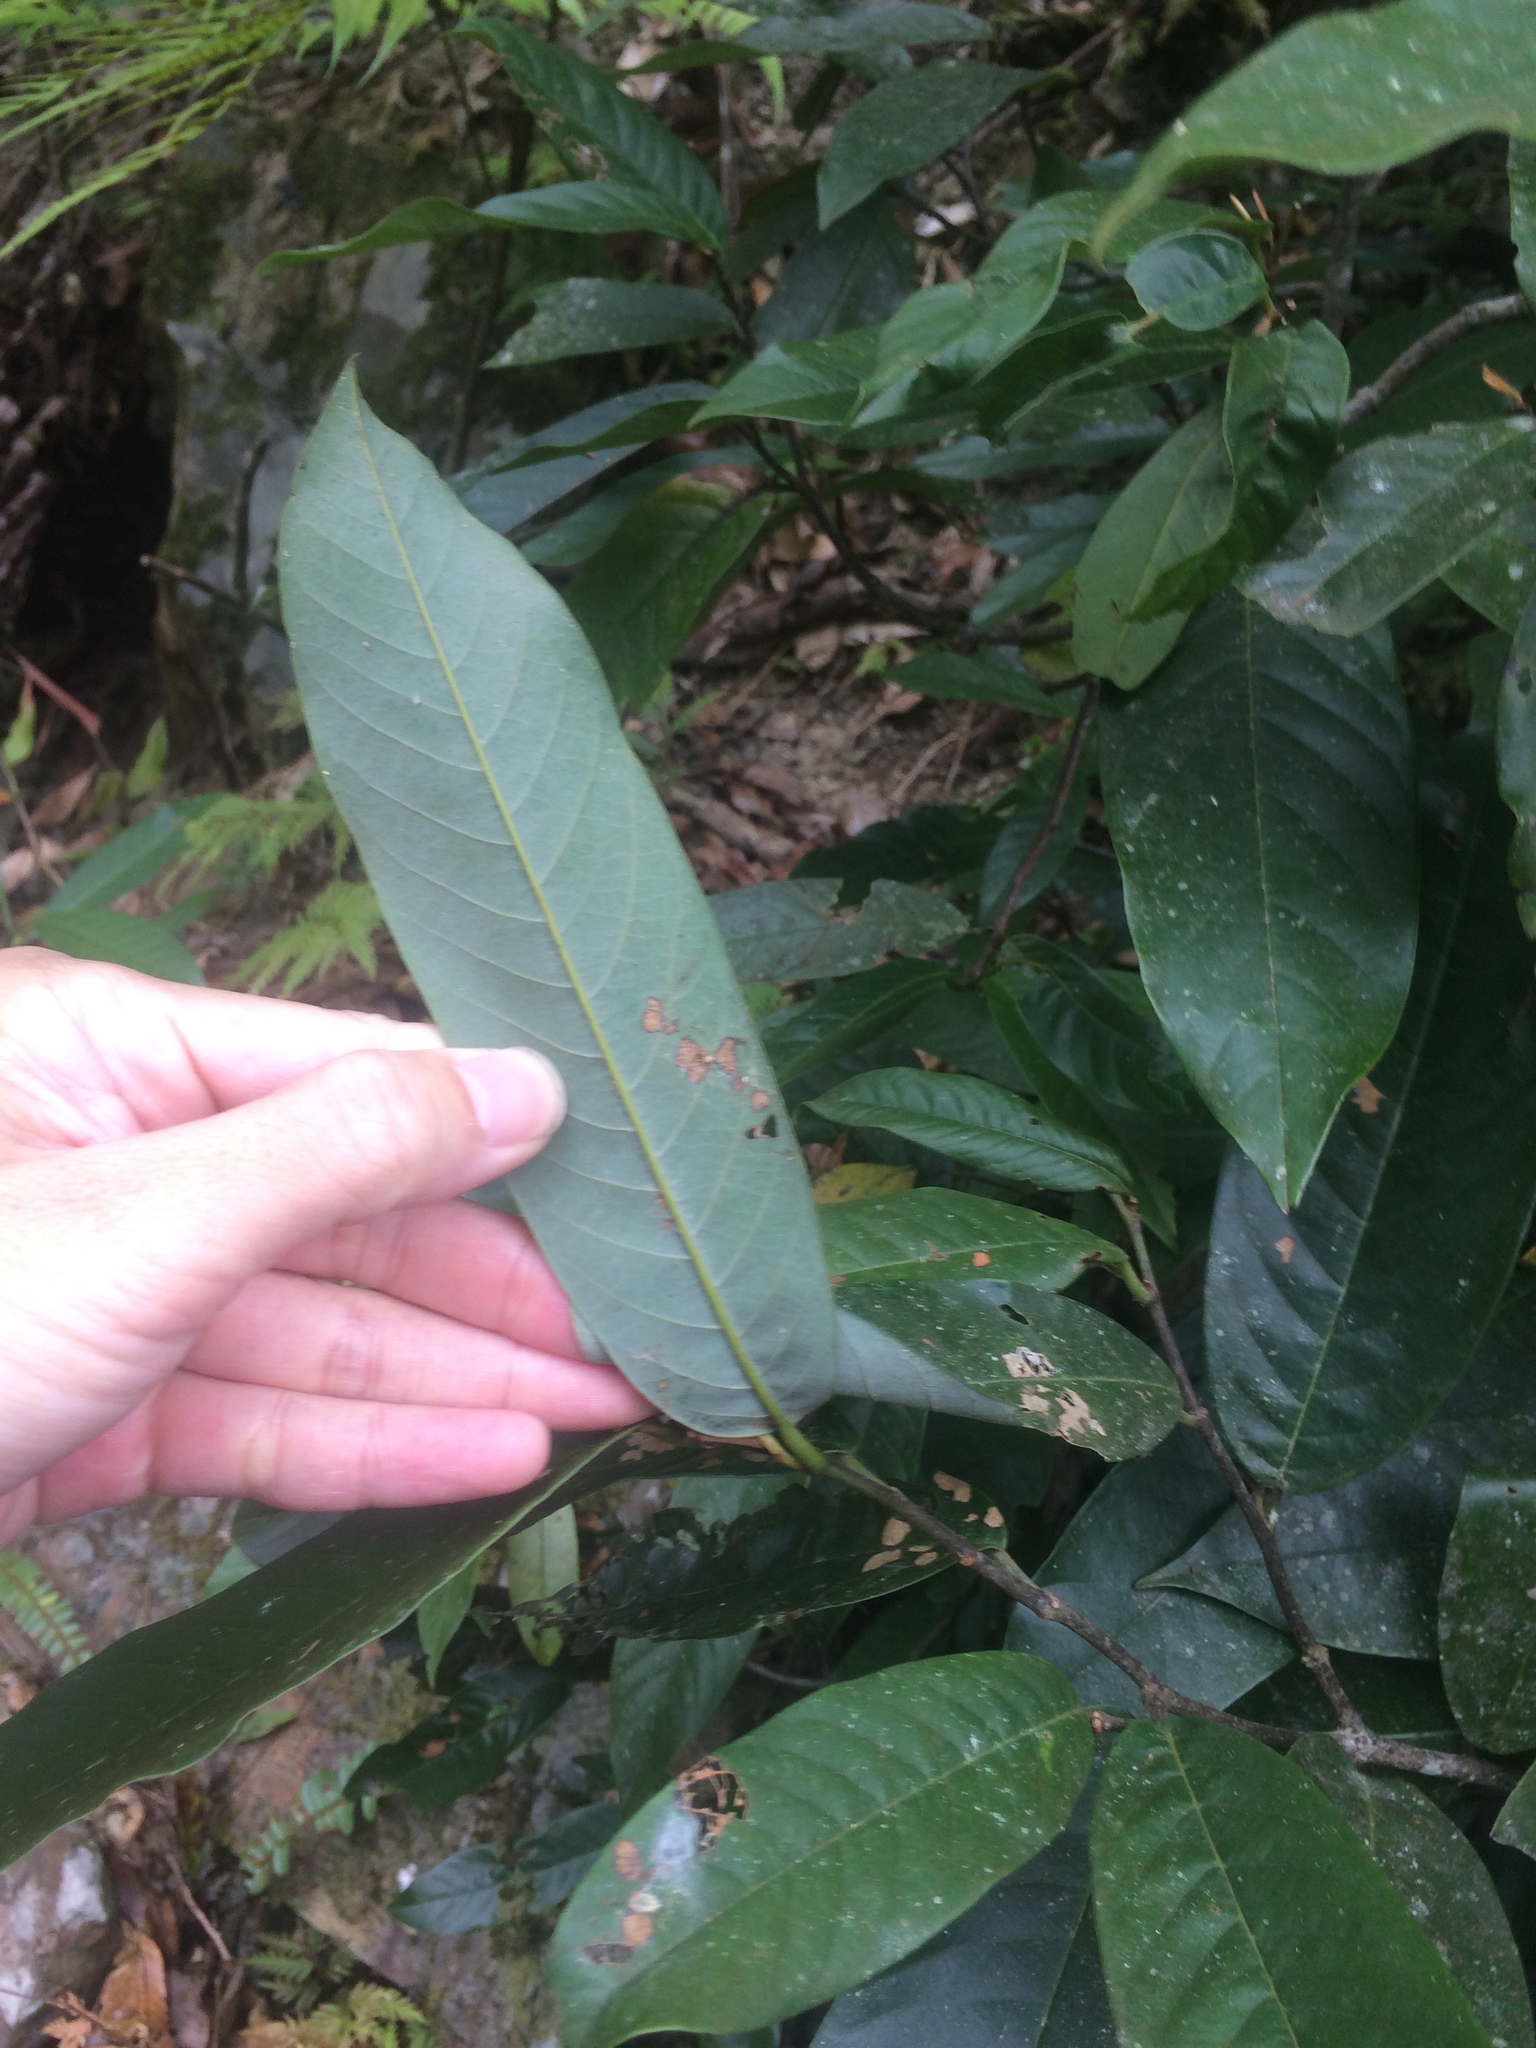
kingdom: Plantae
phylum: Tracheophyta
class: Magnoliopsida
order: Magnoliales
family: Annonaceae
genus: Fissistigma
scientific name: Fissistigma oldhamii
